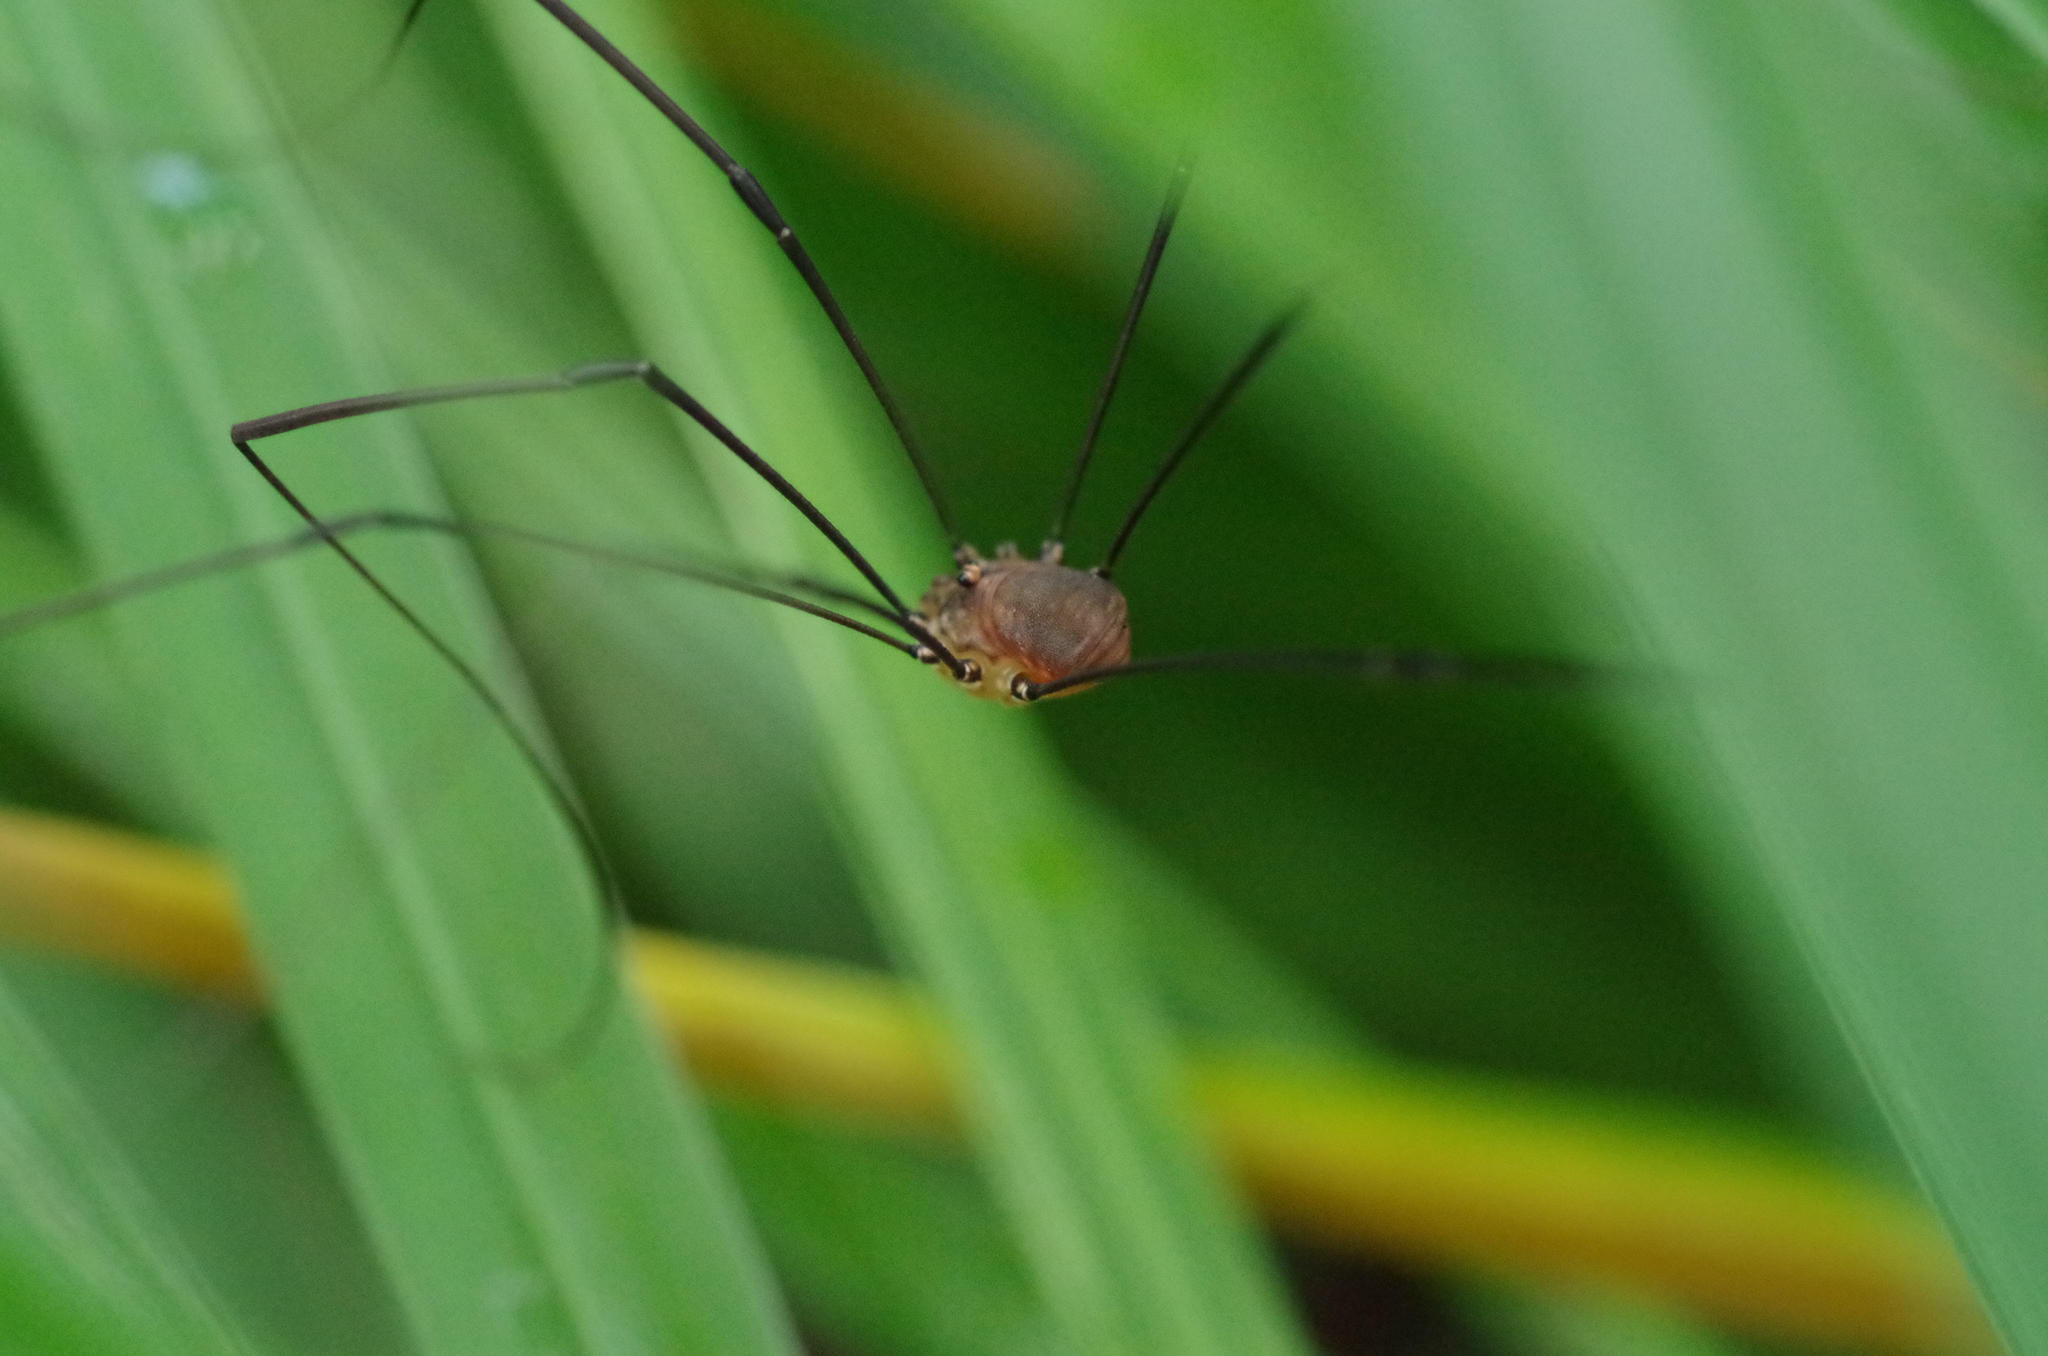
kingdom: Animalia
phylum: Arthropoda
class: Arachnida
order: Opiliones
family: Sclerosomatidae
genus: Leiobunum
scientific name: Leiobunum blackwalli
